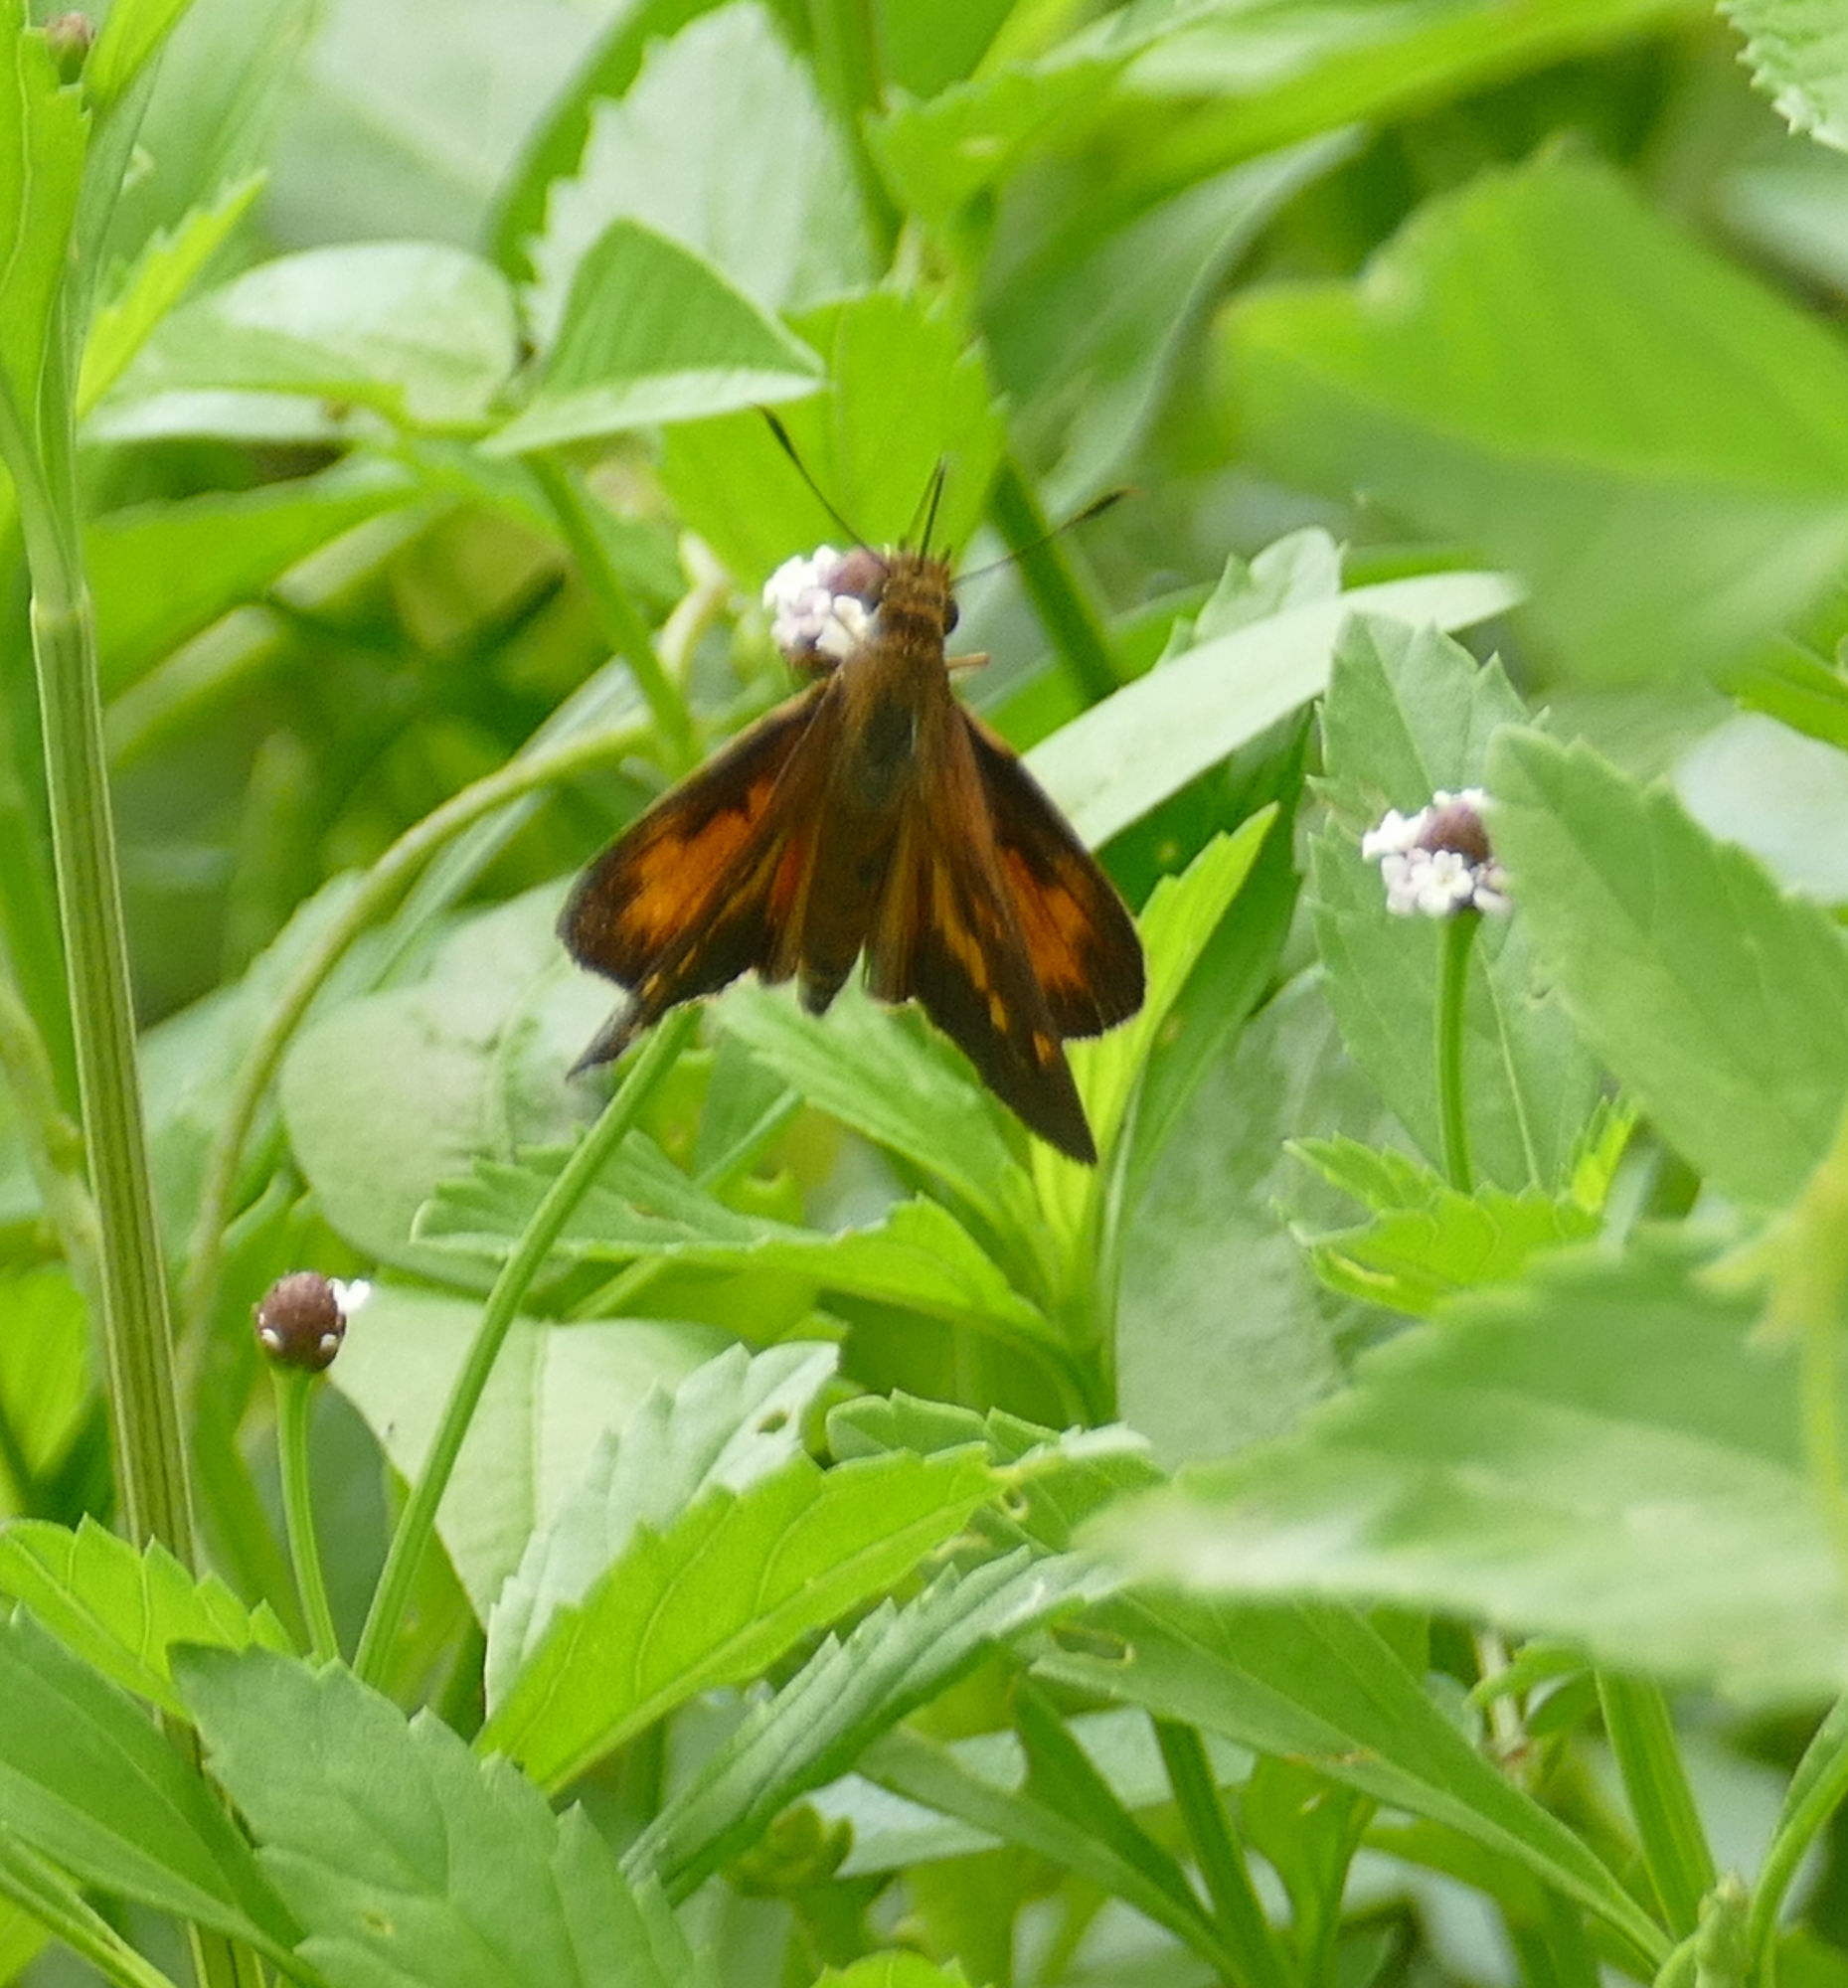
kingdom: Animalia
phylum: Arthropoda
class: Insecta
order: Lepidoptera
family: Hesperiidae
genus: Poanes
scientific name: Poanes viator
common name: Broad-winged skipper
